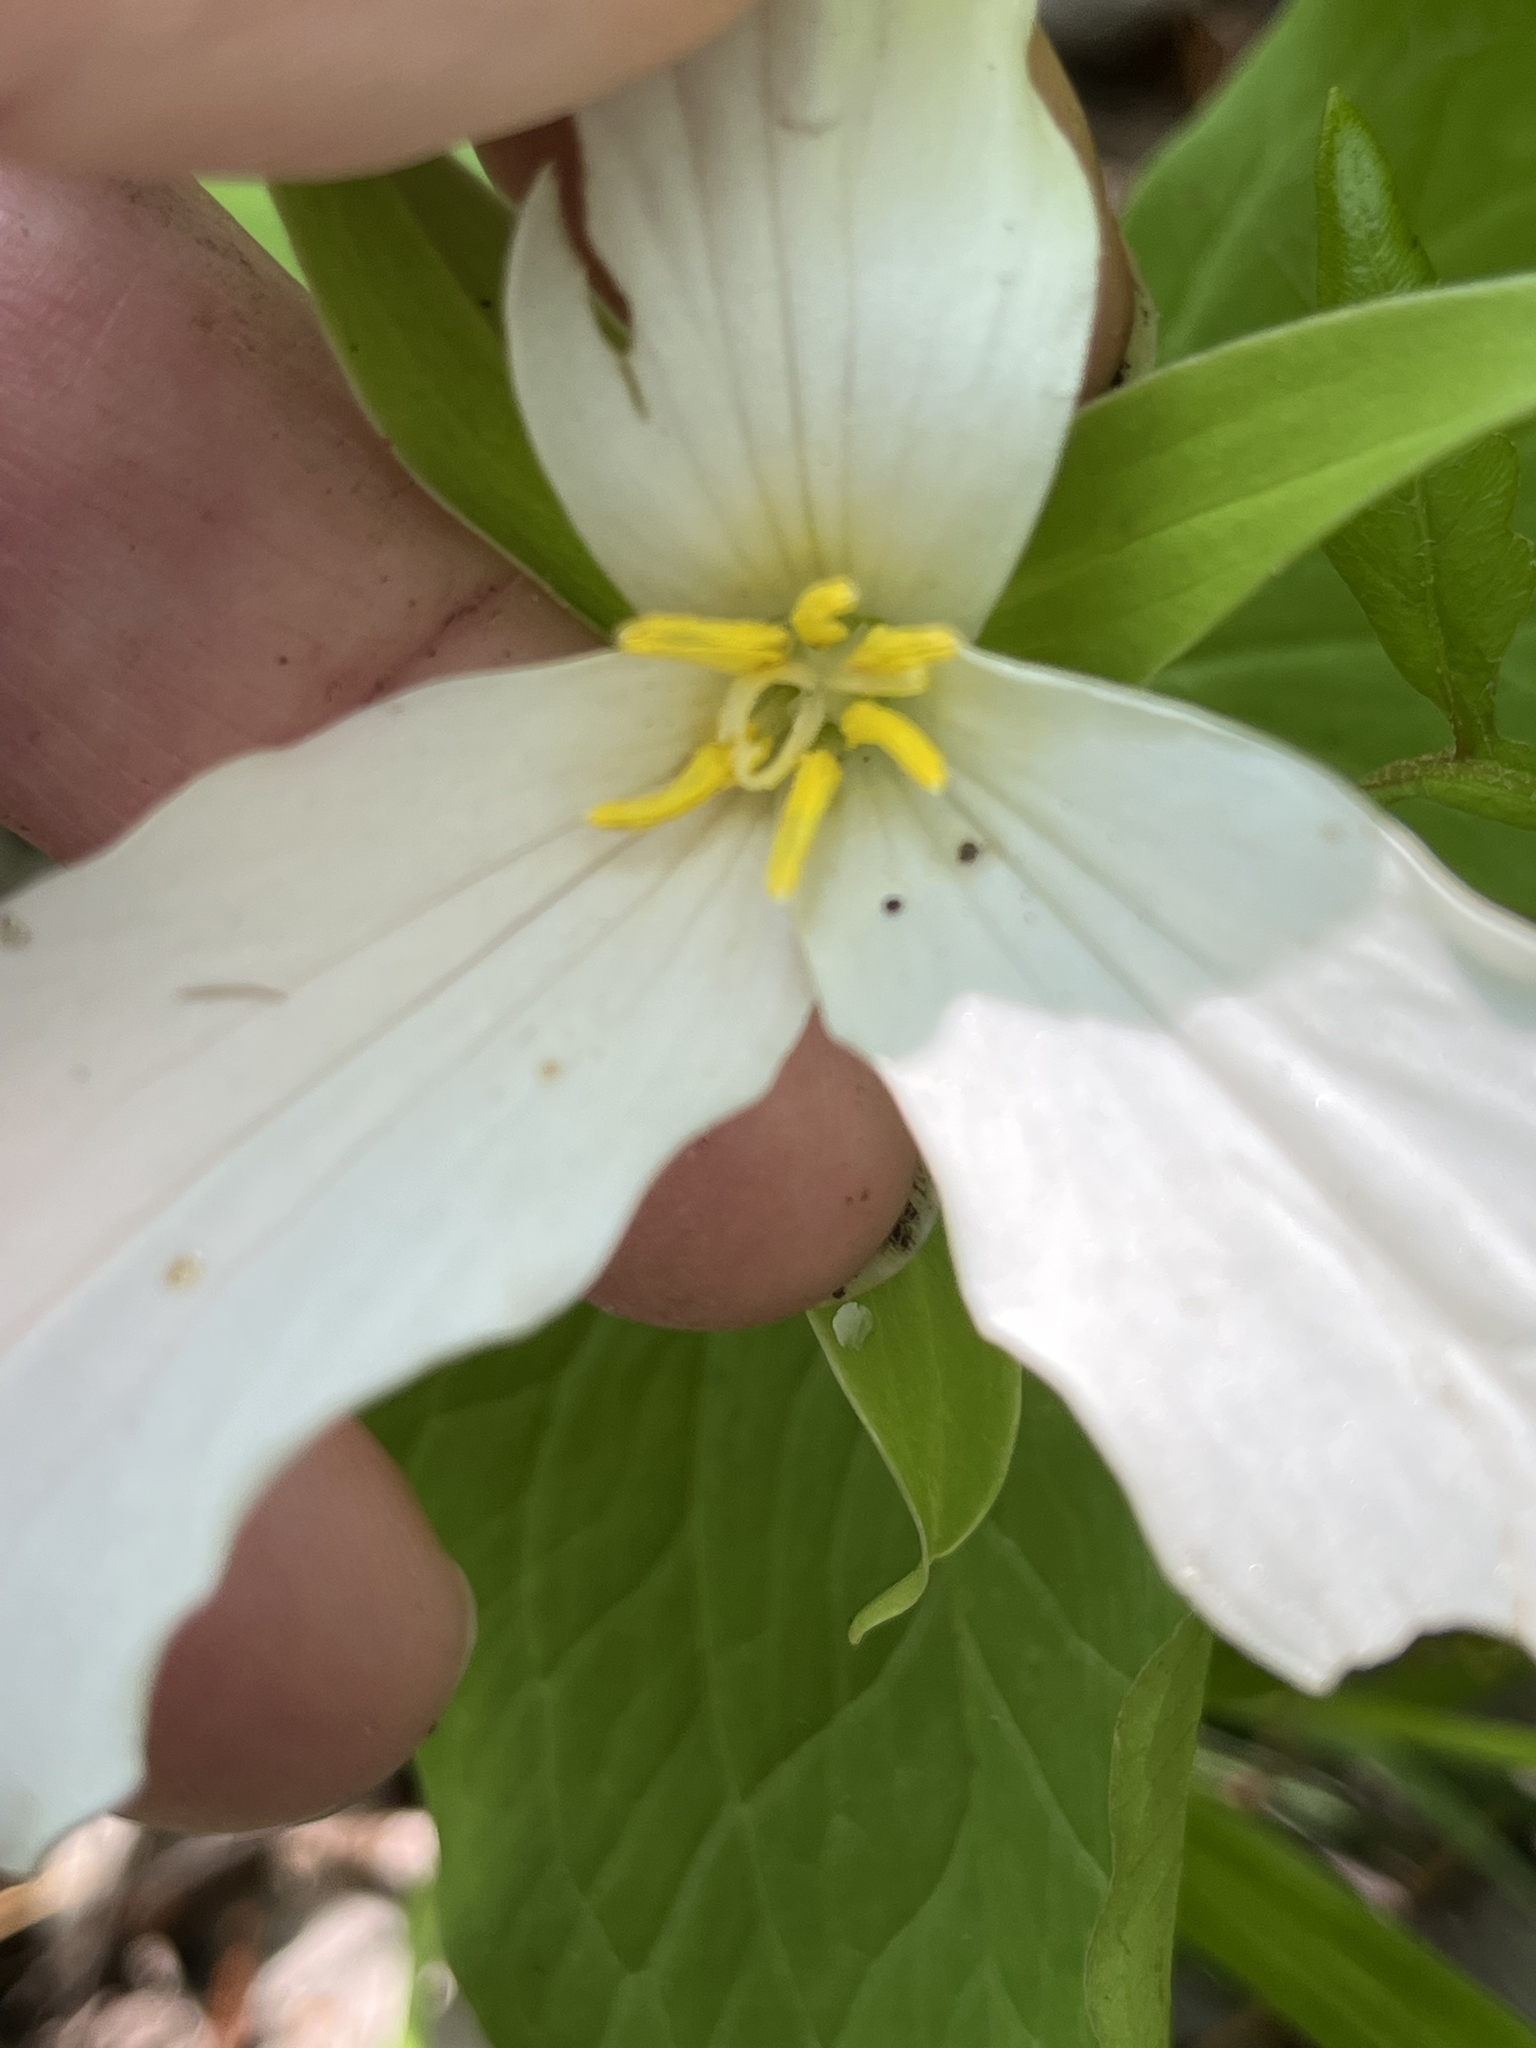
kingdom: Plantae
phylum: Tracheophyta
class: Liliopsida
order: Liliales
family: Melanthiaceae
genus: Trillium
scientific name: Trillium grandiflorum
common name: Great white trillium
